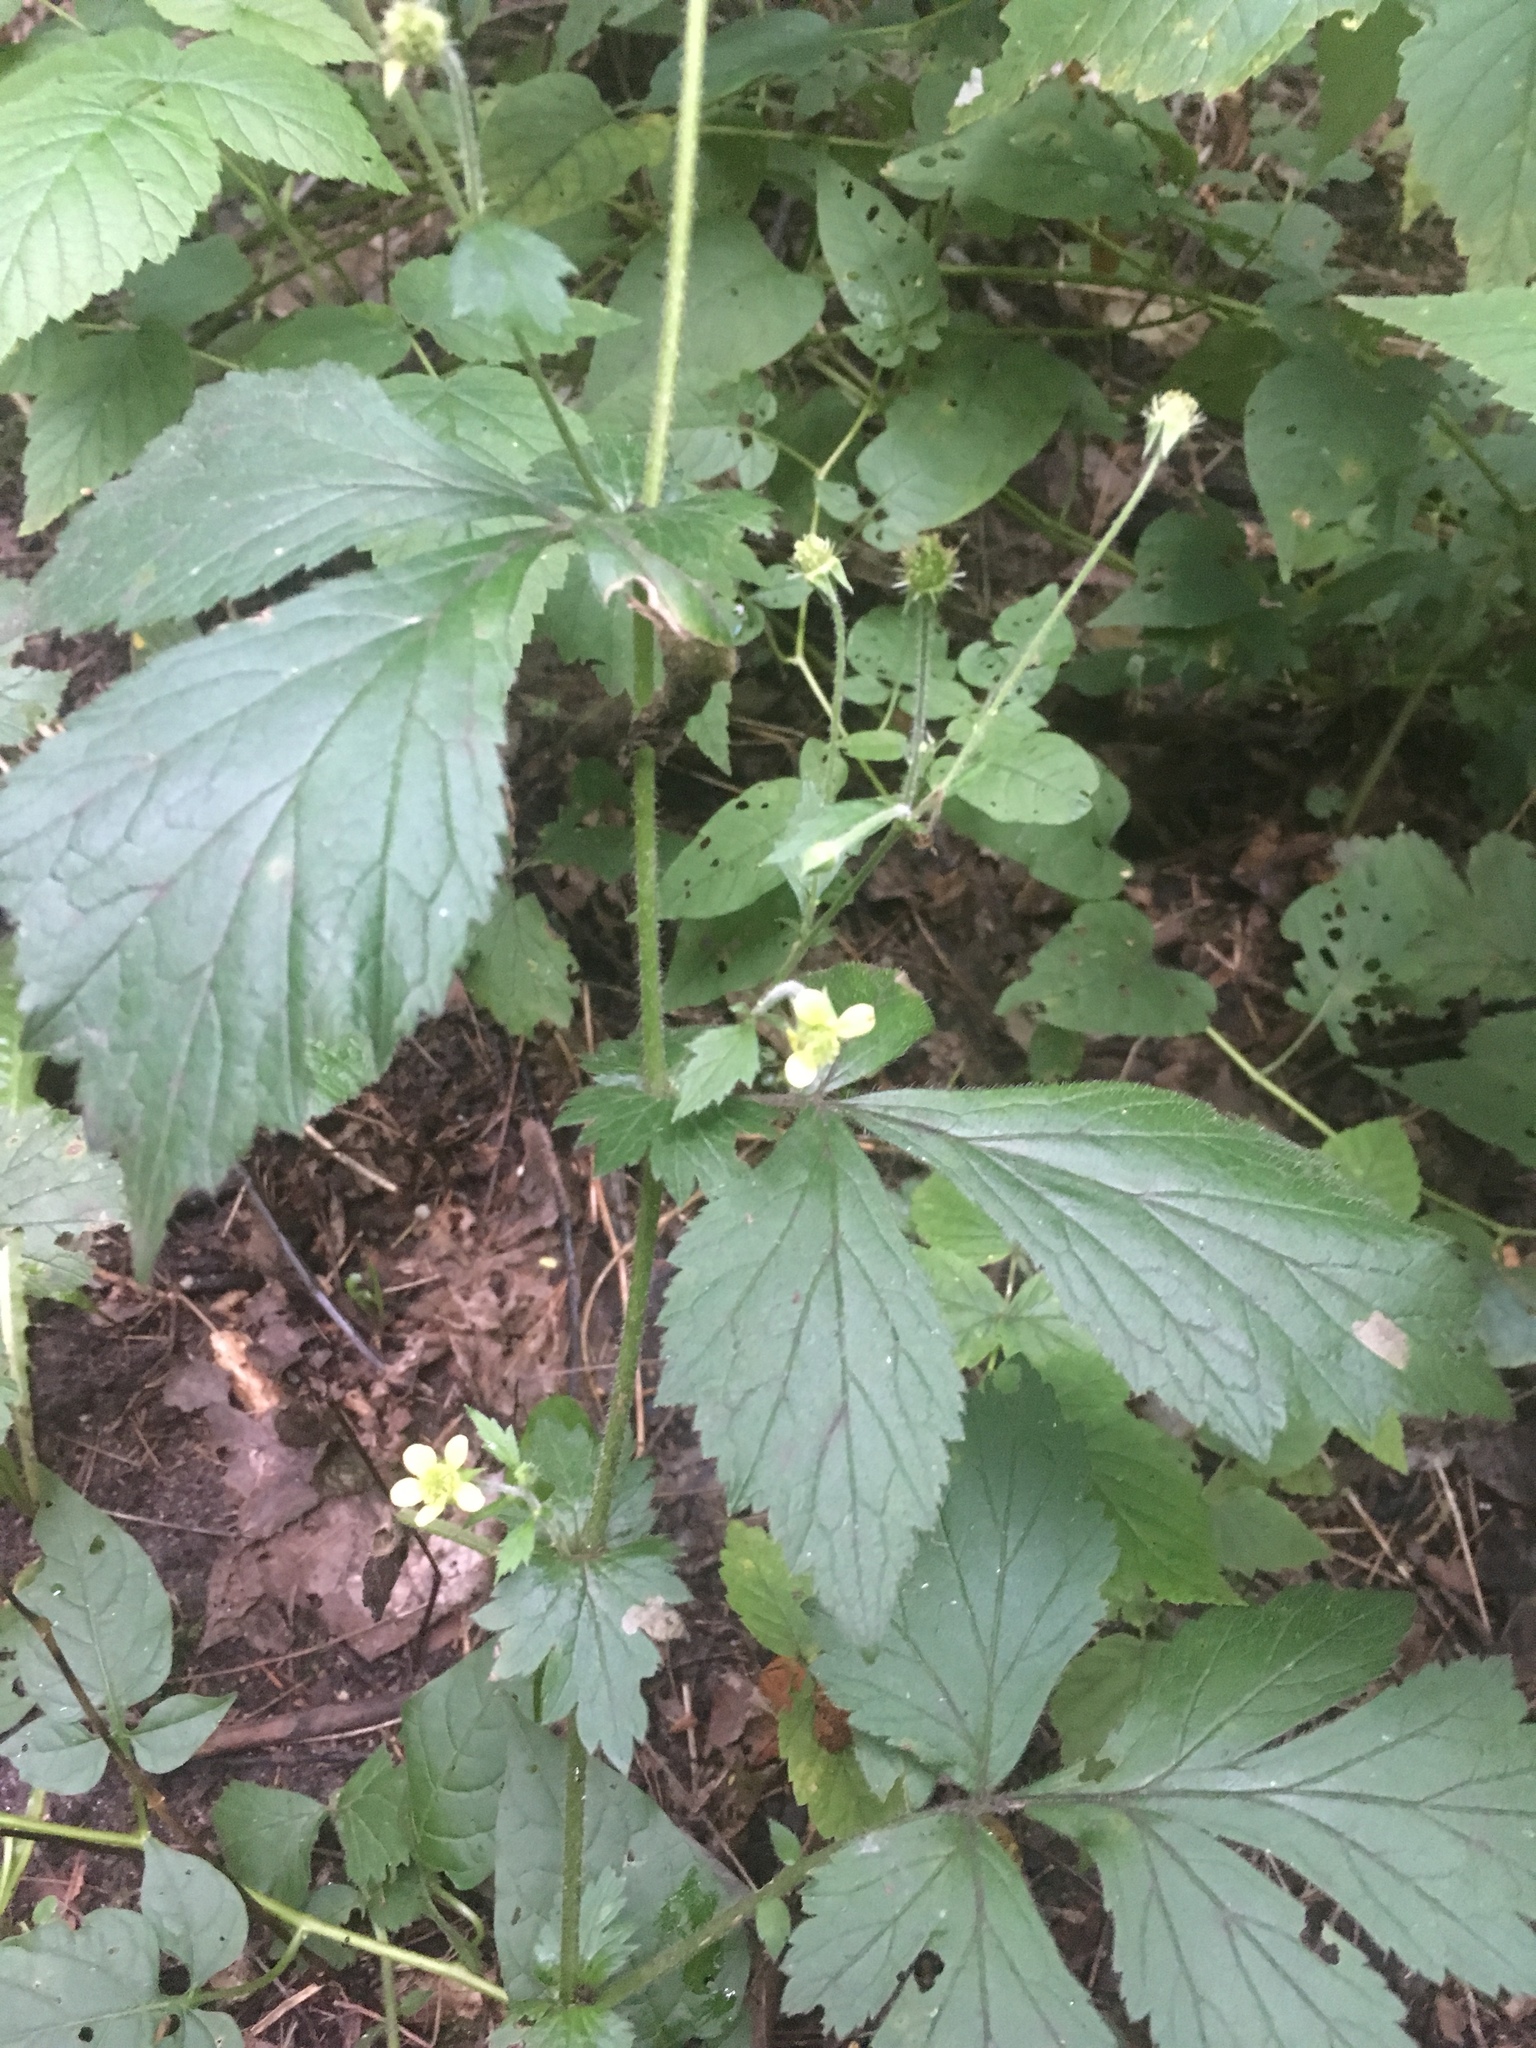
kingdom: Plantae
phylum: Tracheophyta
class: Magnoliopsida
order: Rosales
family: Rosaceae
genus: Geum
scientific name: Geum catlingii
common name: Catling's avens
